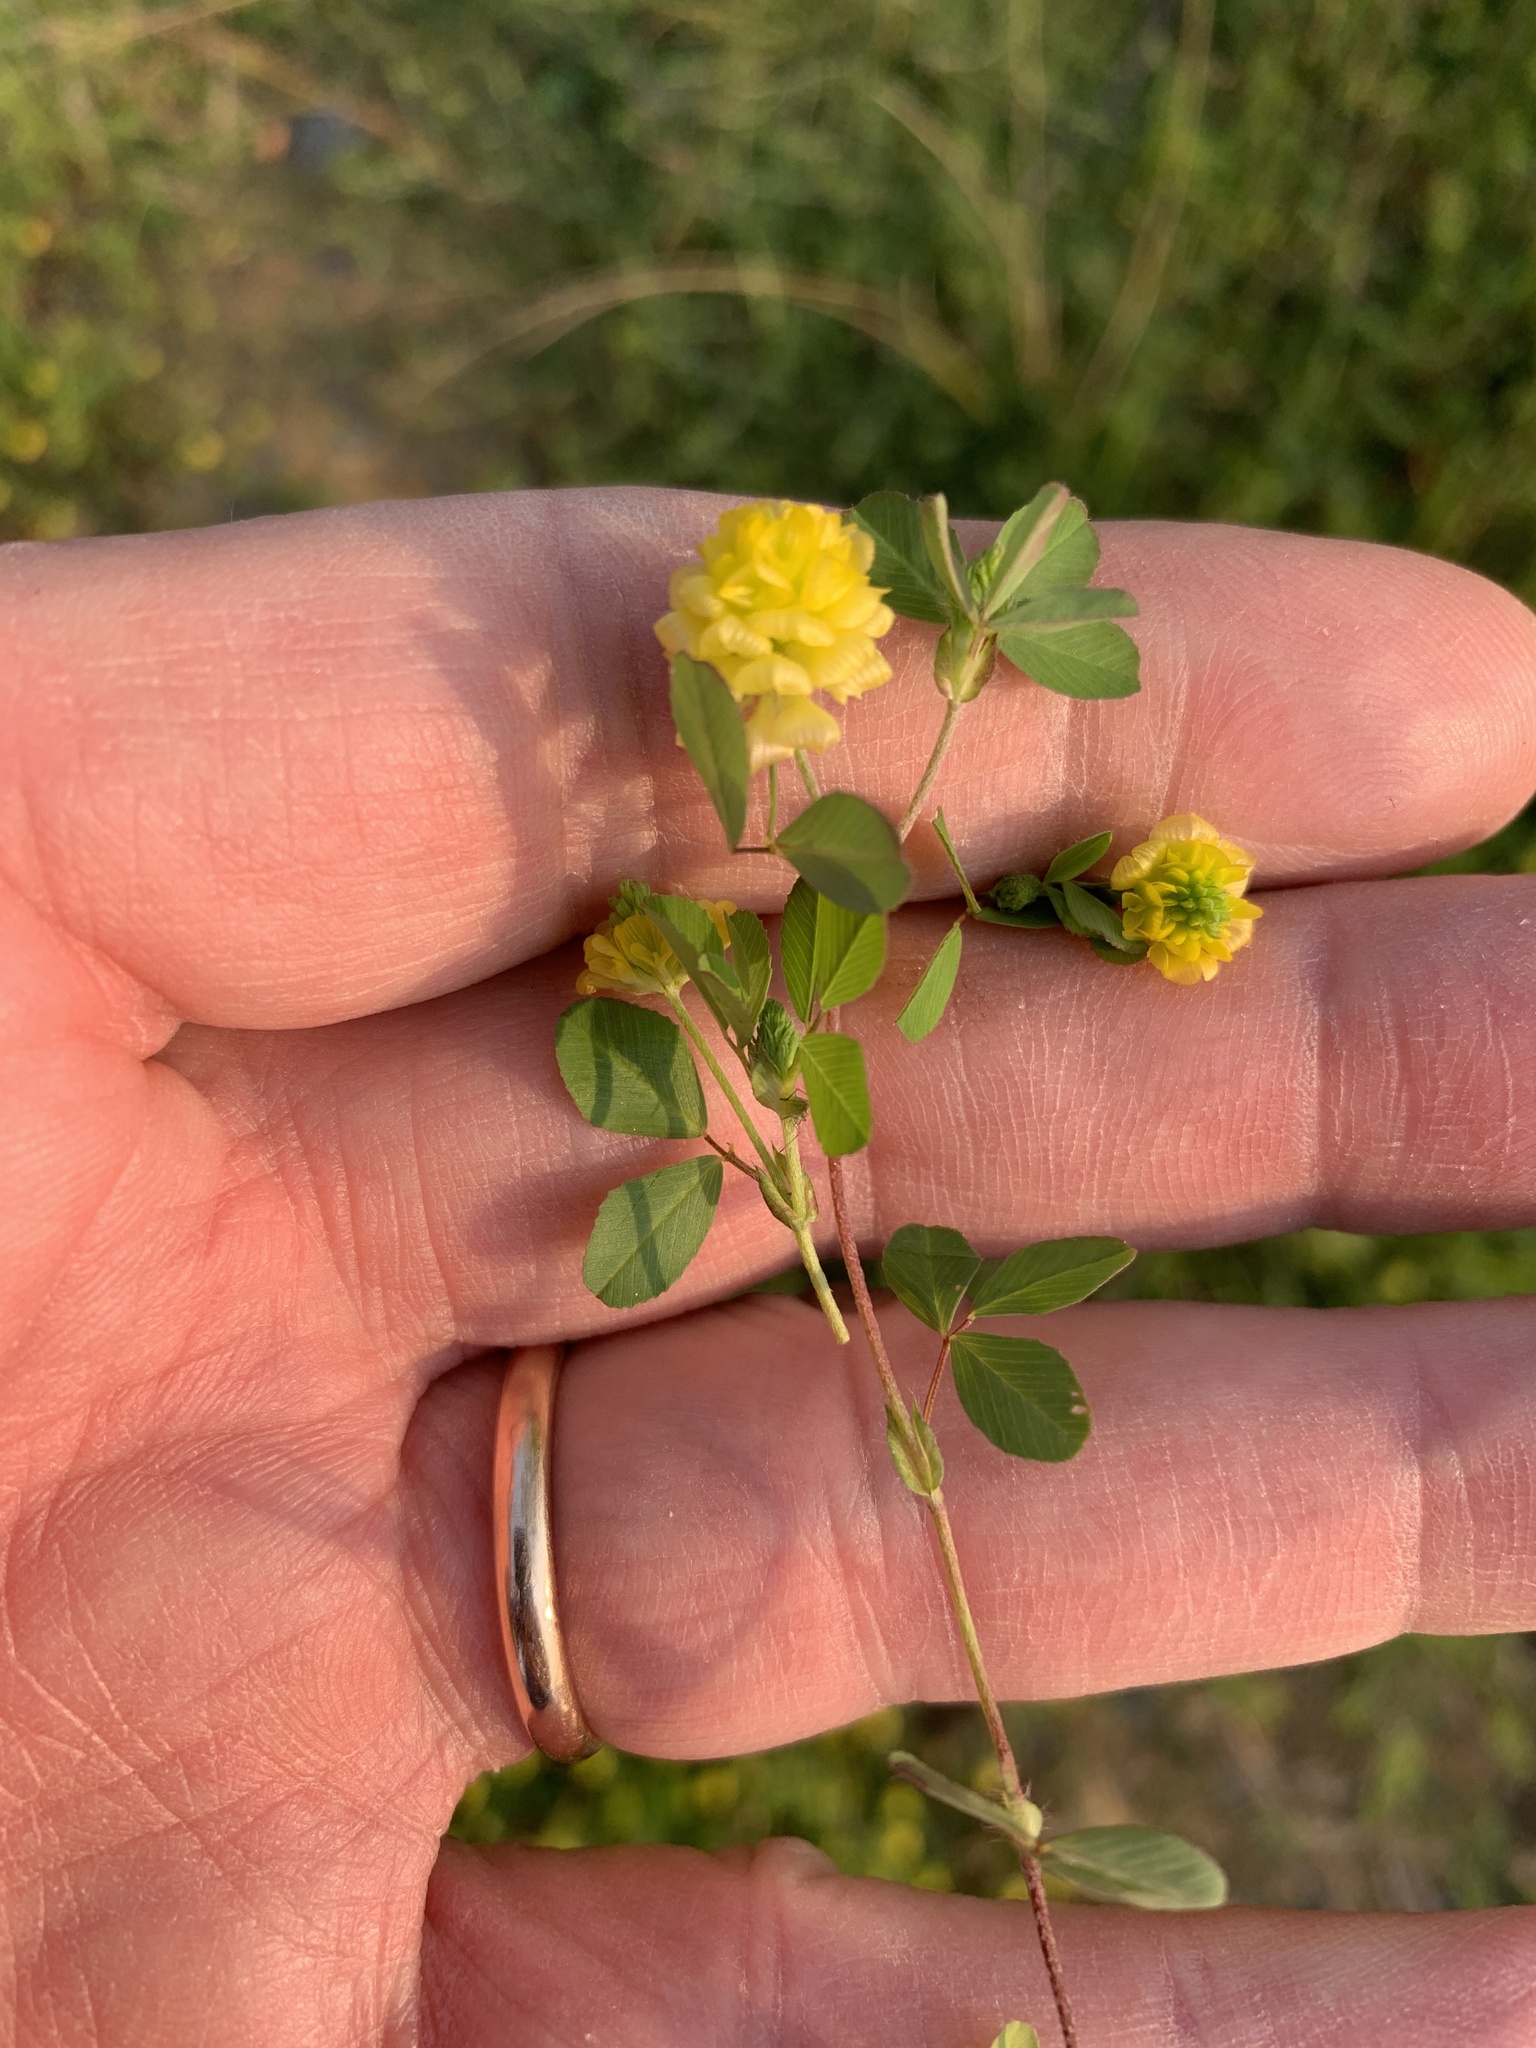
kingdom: Plantae
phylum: Tracheophyta
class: Magnoliopsida
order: Fabales
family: Fabaceae
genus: Trifolium
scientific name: Trifolium campestre
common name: Field clover
